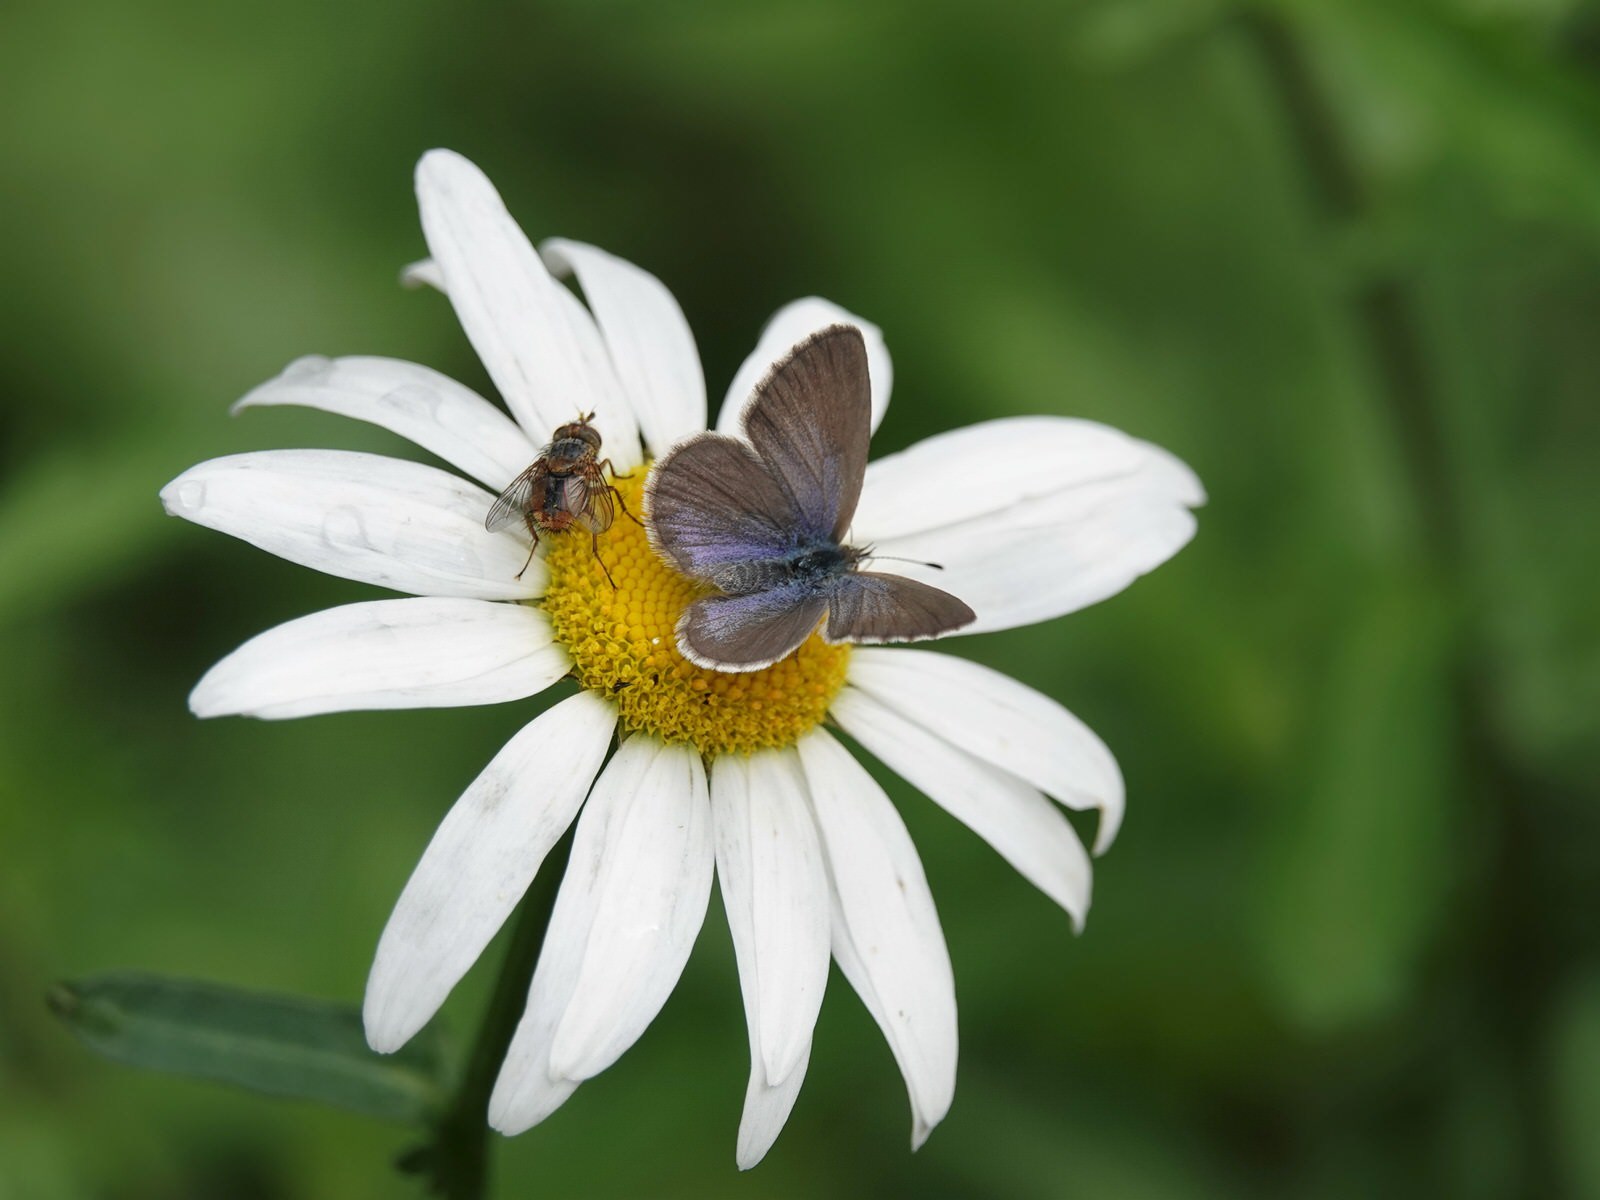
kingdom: Animalia
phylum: Arthropoda
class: Insecta
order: Lepidoptera
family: Lycaenidae
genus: Zizina
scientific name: Zizina labradus
